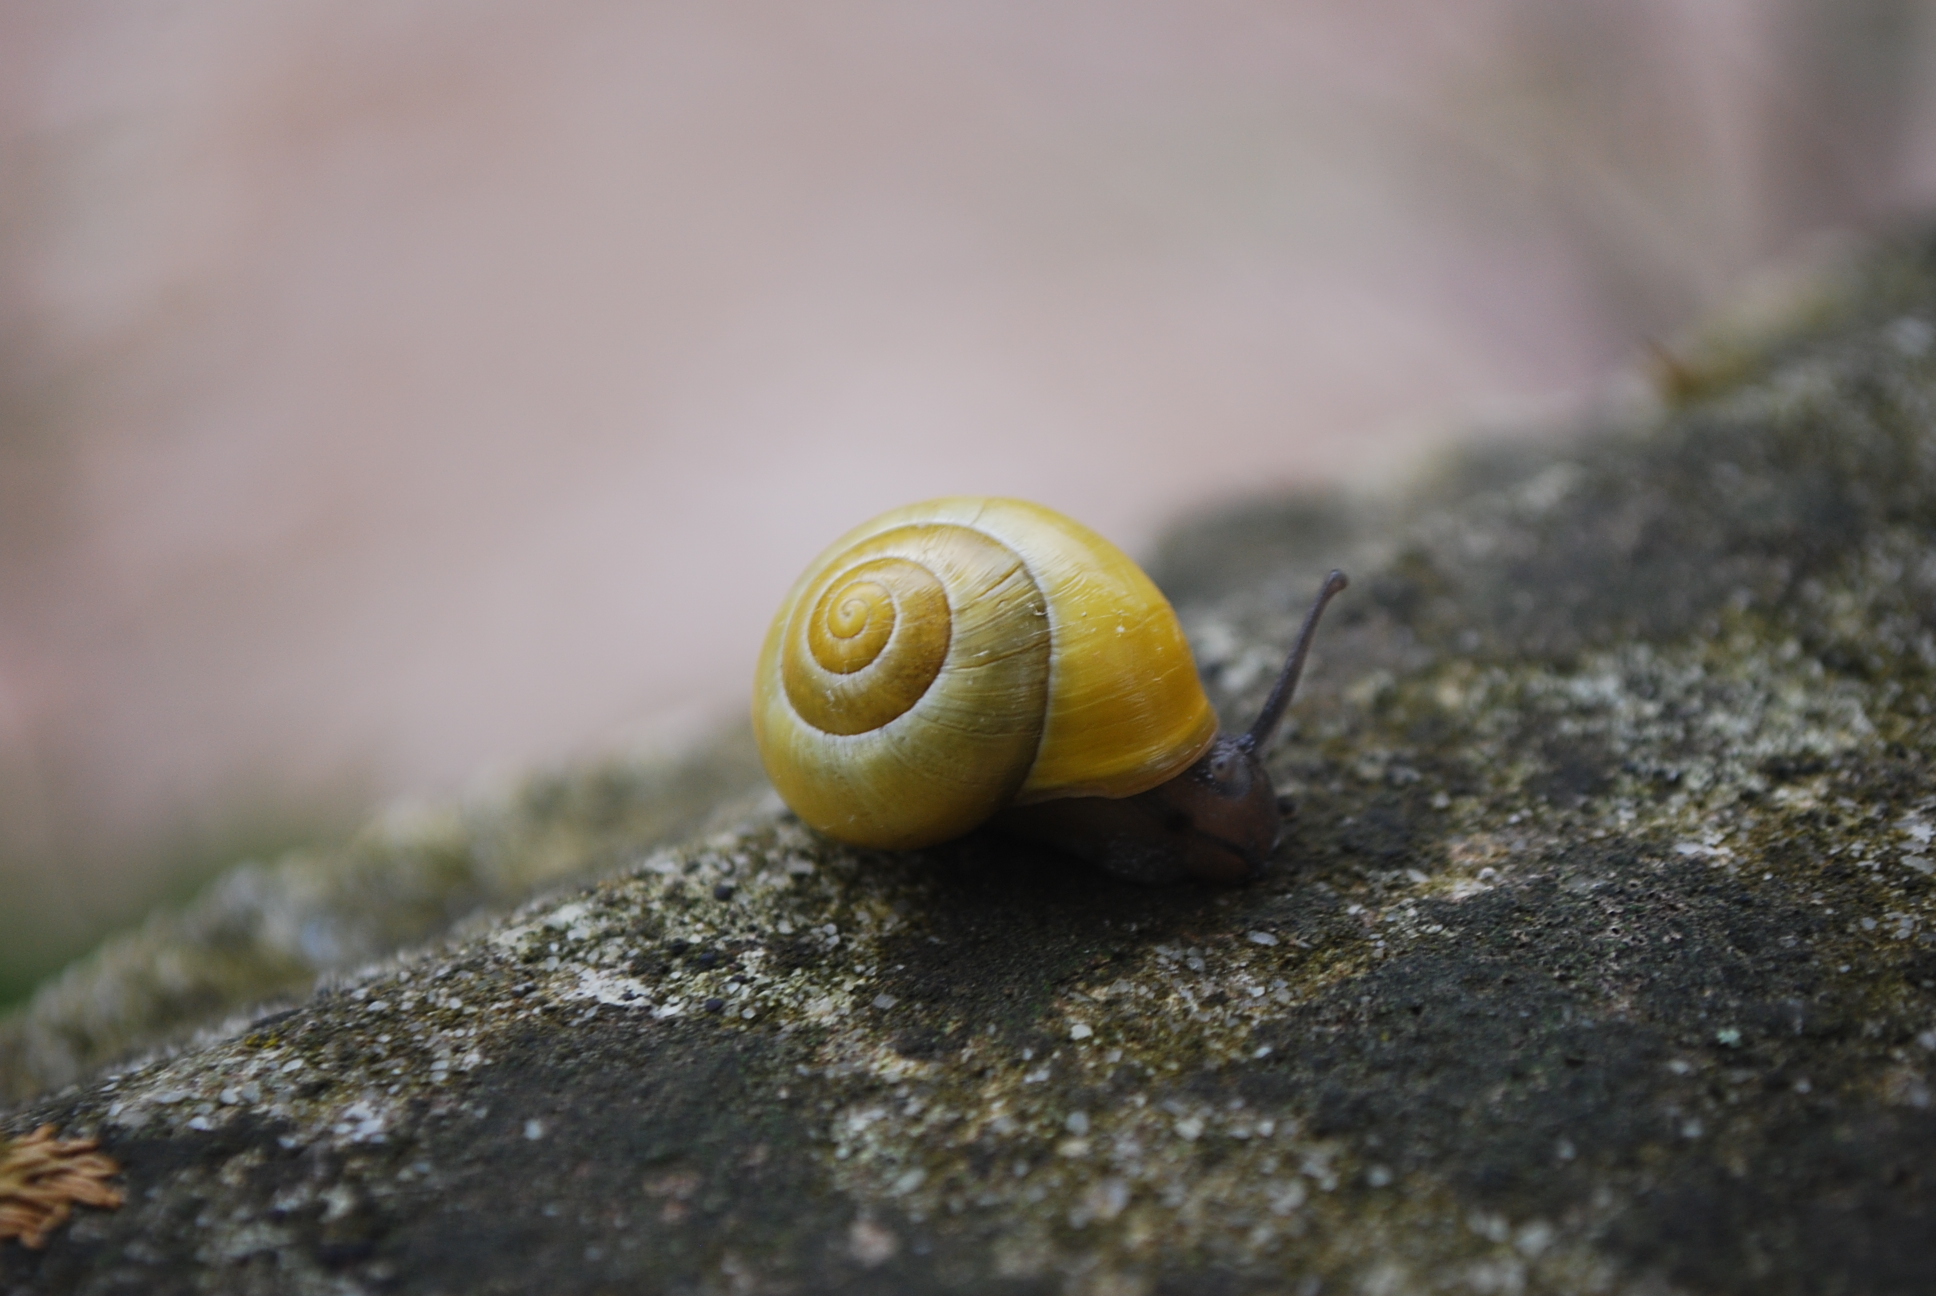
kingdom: Animalia
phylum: Mollusca
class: Gastropoda
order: Stylommatophora
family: Helicidae
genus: Cepaea
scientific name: Cepaea hortensis
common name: White-lip gardensnail
